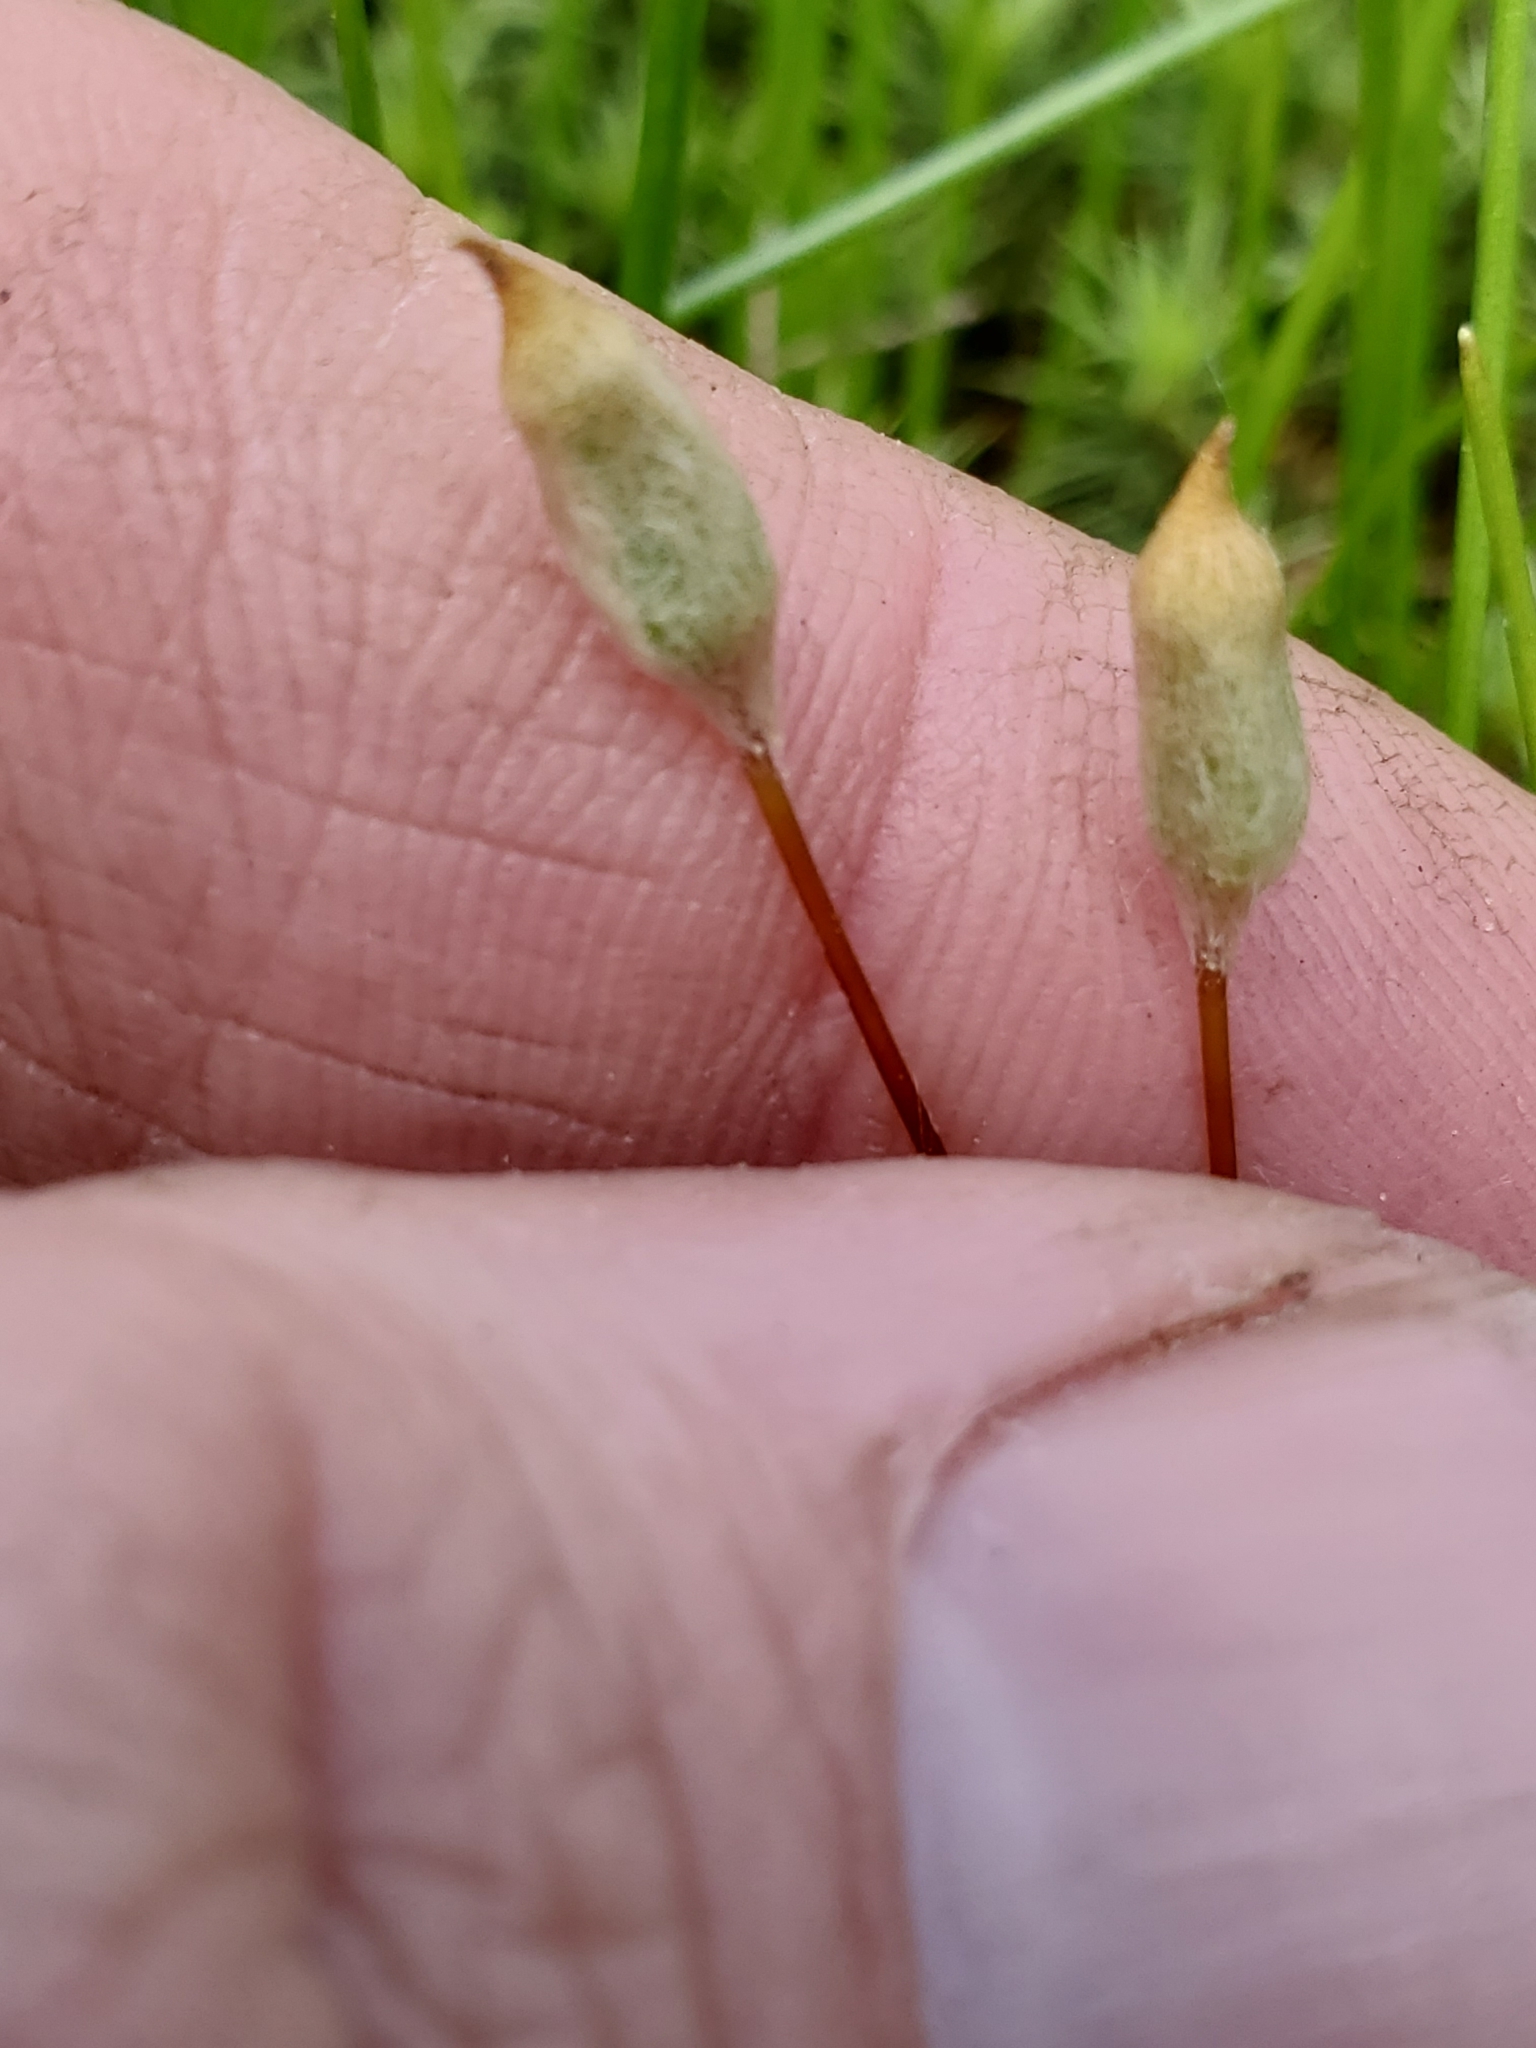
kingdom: Plantae
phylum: Bryophyta
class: Polytrichopsida
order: Polytrichales
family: Polytrichaceae
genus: Polytrichum
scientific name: Polytrichum juniperinum
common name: Juniper haircap moss
